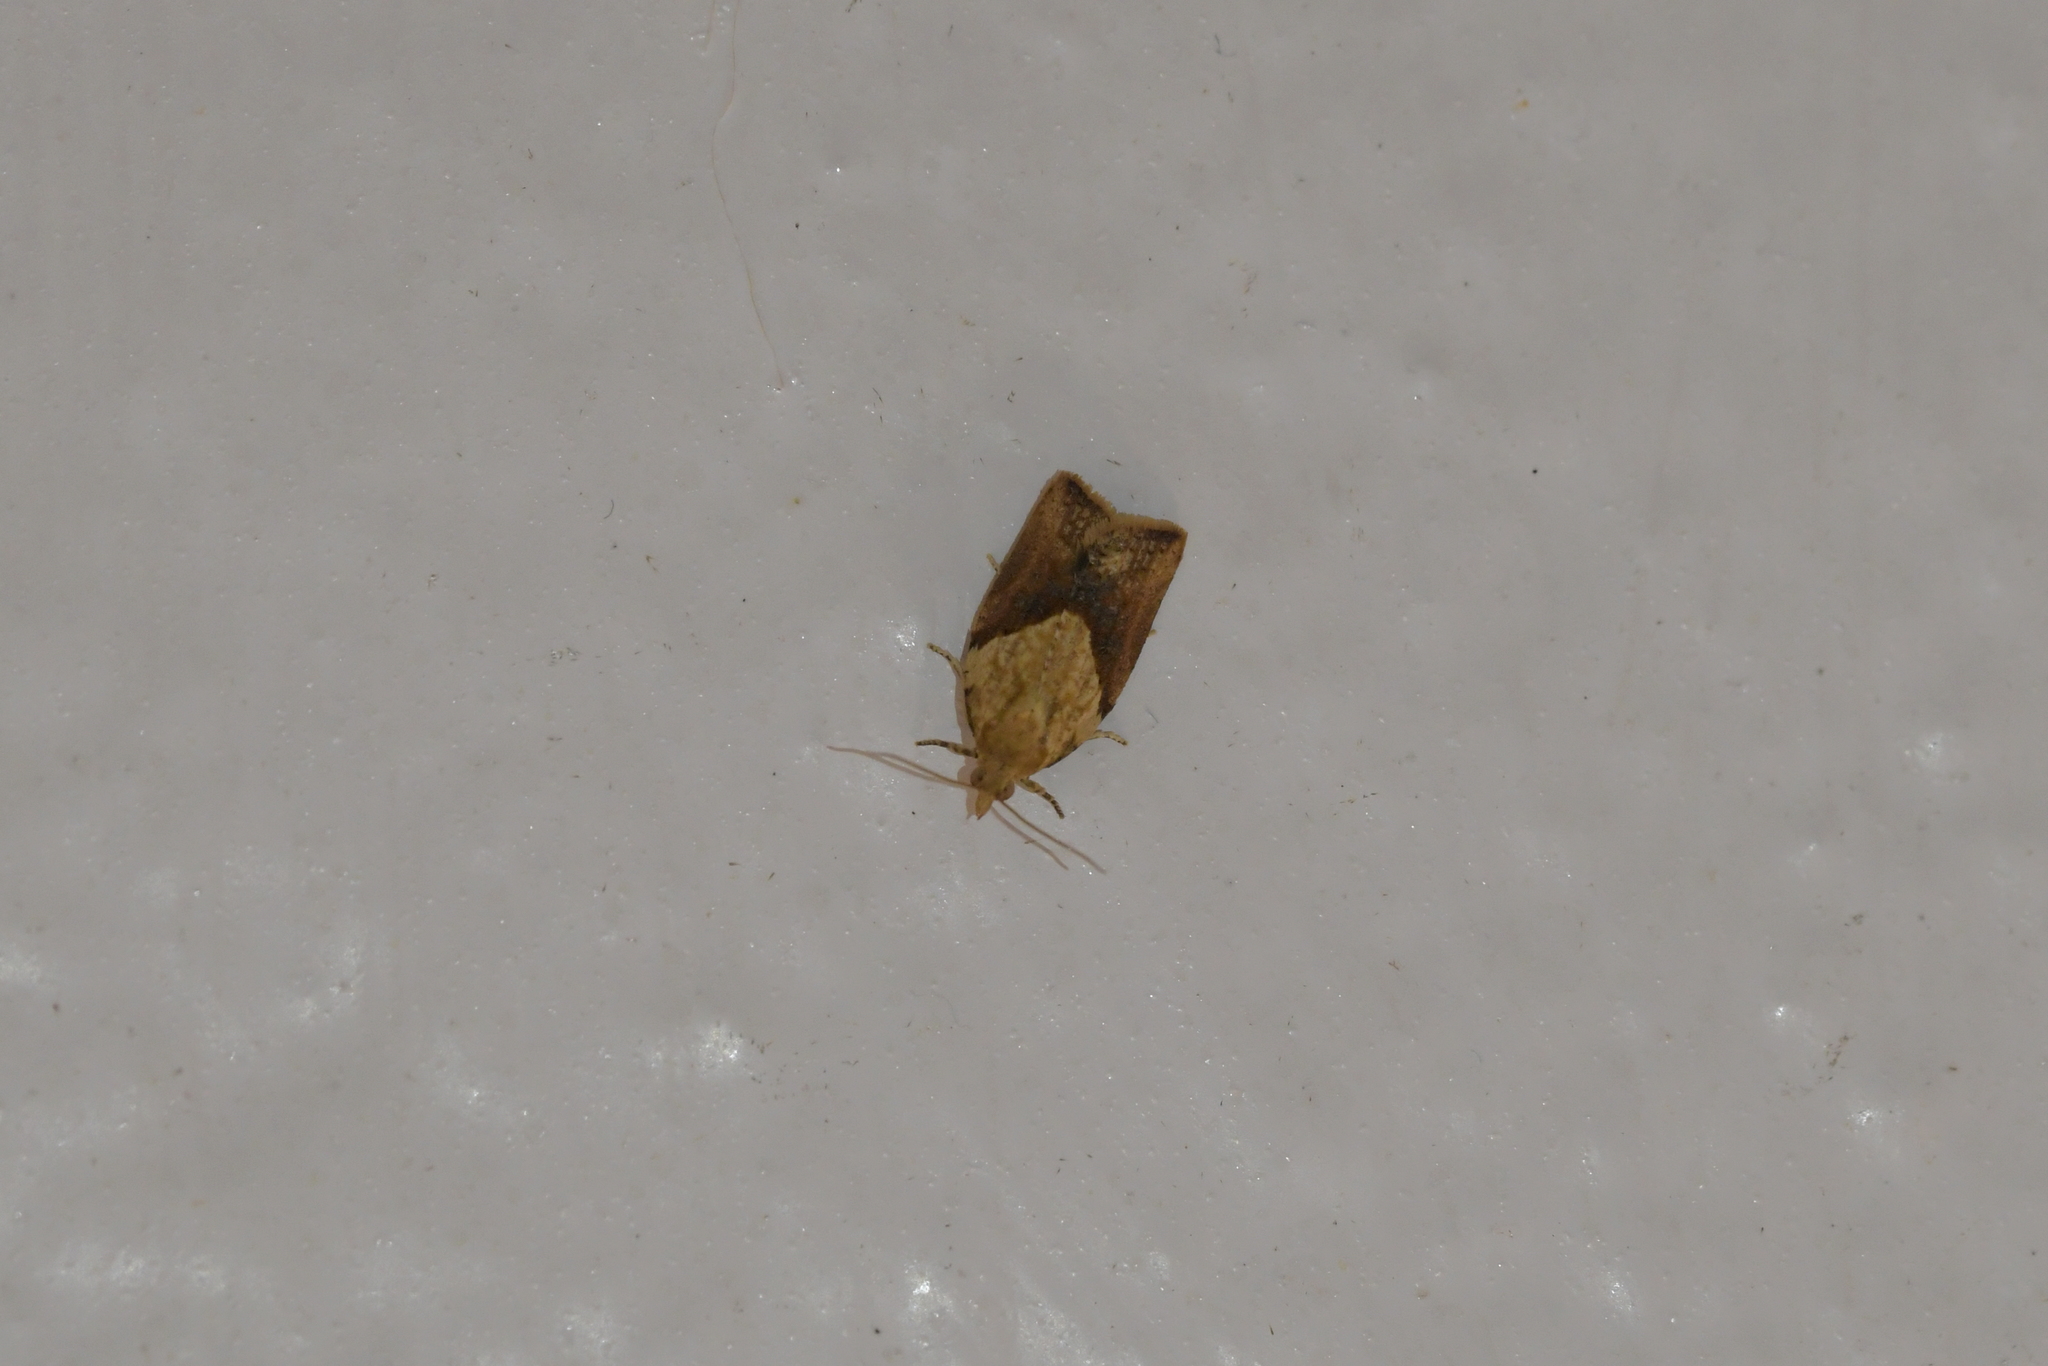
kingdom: Animalia
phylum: Arthropoda
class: Insecta
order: Lepidoptera
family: Tortricidae
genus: Epiphyas
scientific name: Epiphyas postvittana
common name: Light brown apple moth
